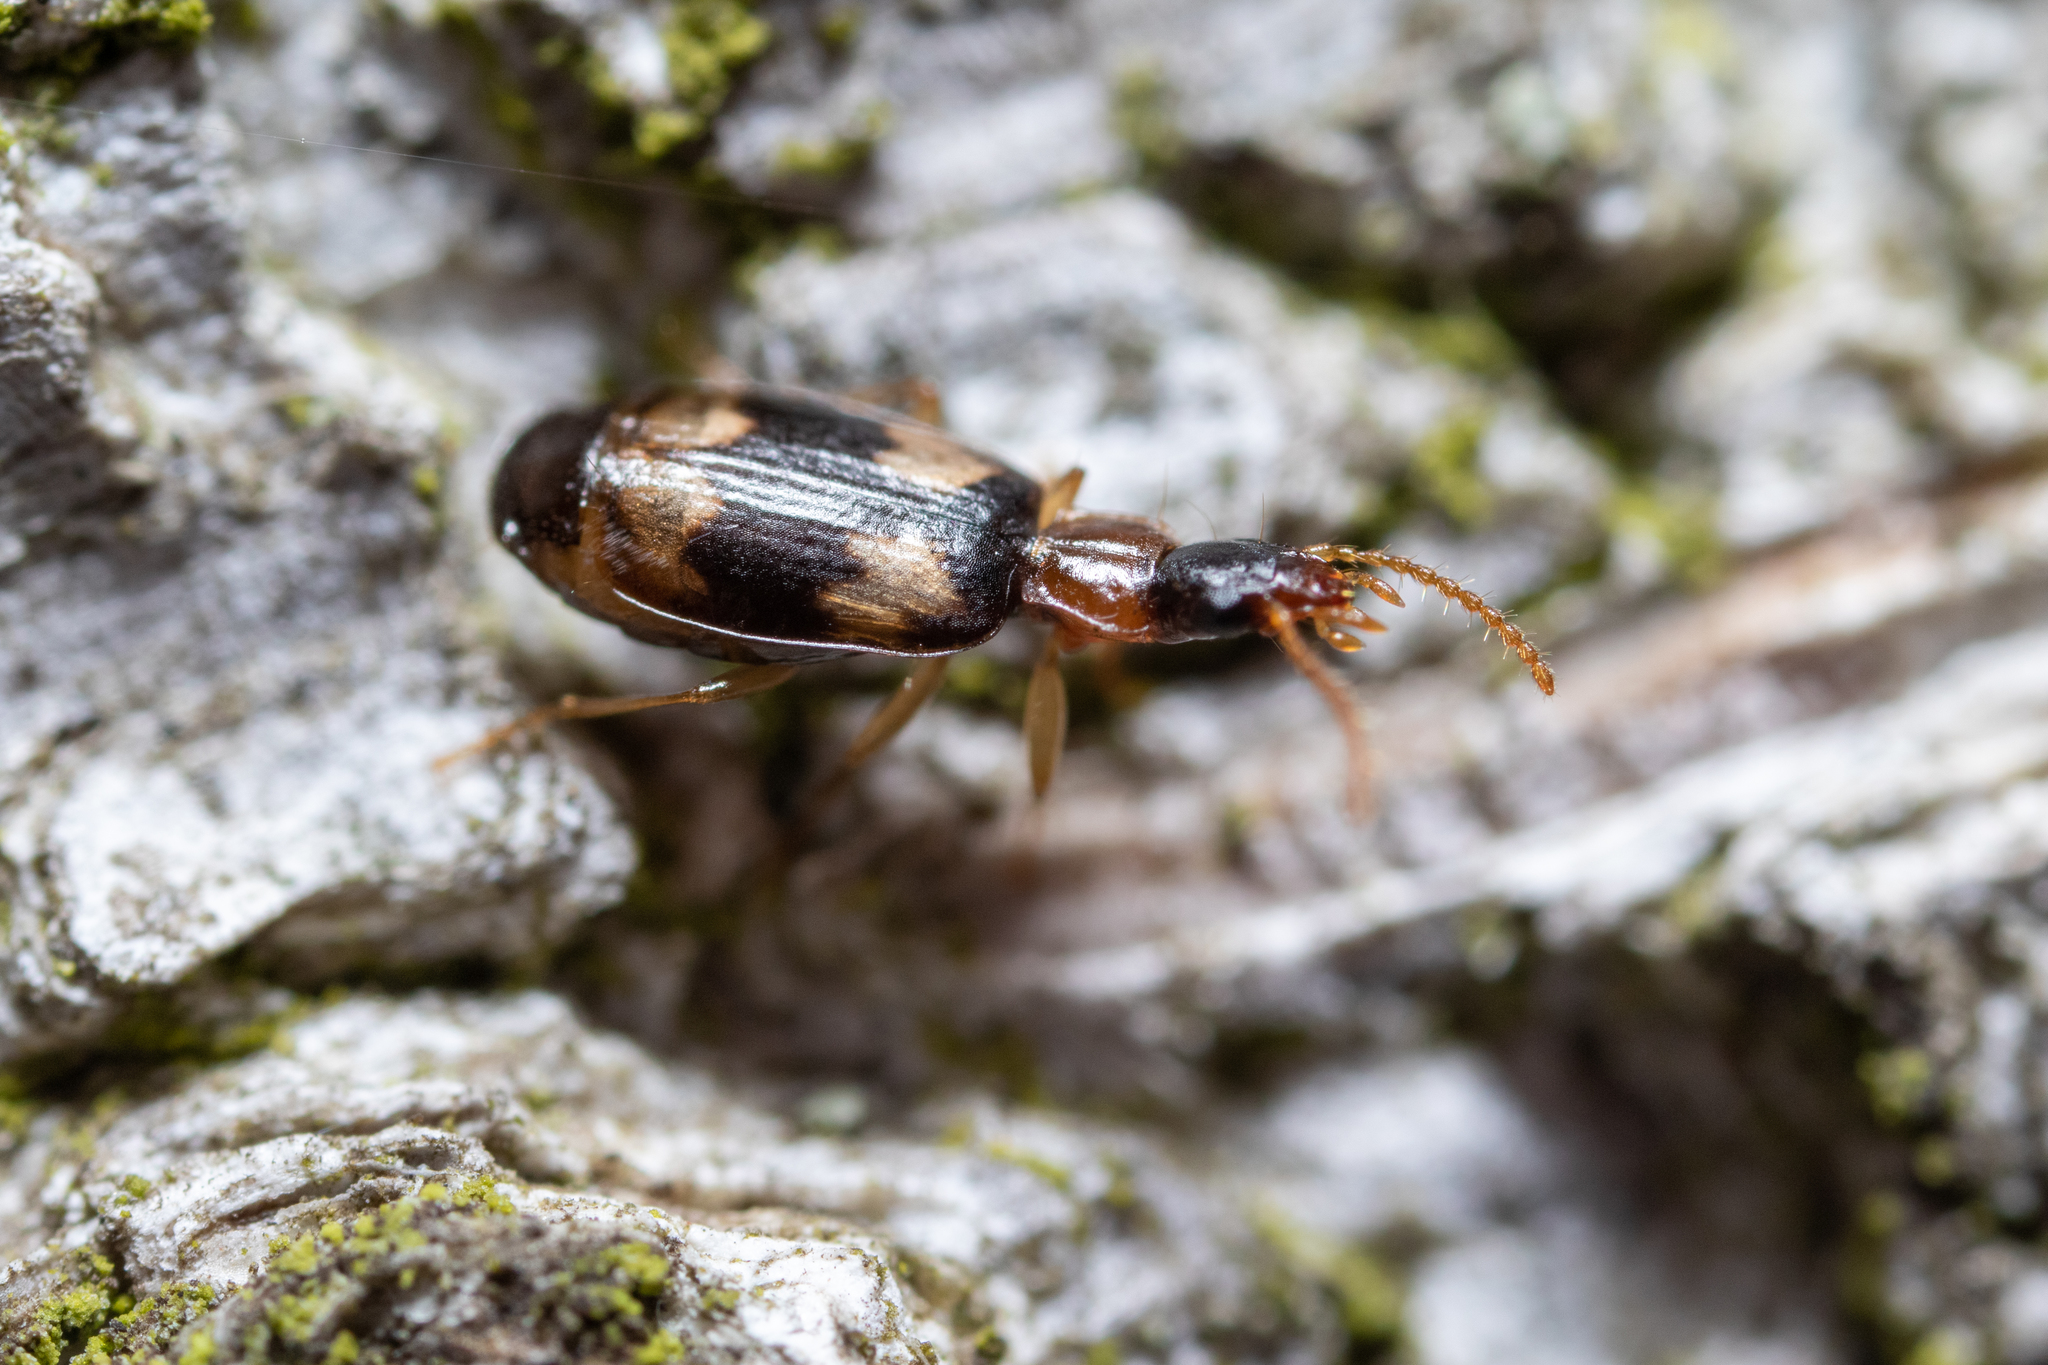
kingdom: Animalia
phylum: Arthropoda
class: Insecta
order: Coleoptera
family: Carabidae
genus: Dromius
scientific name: Dromius quadrimaculatus
